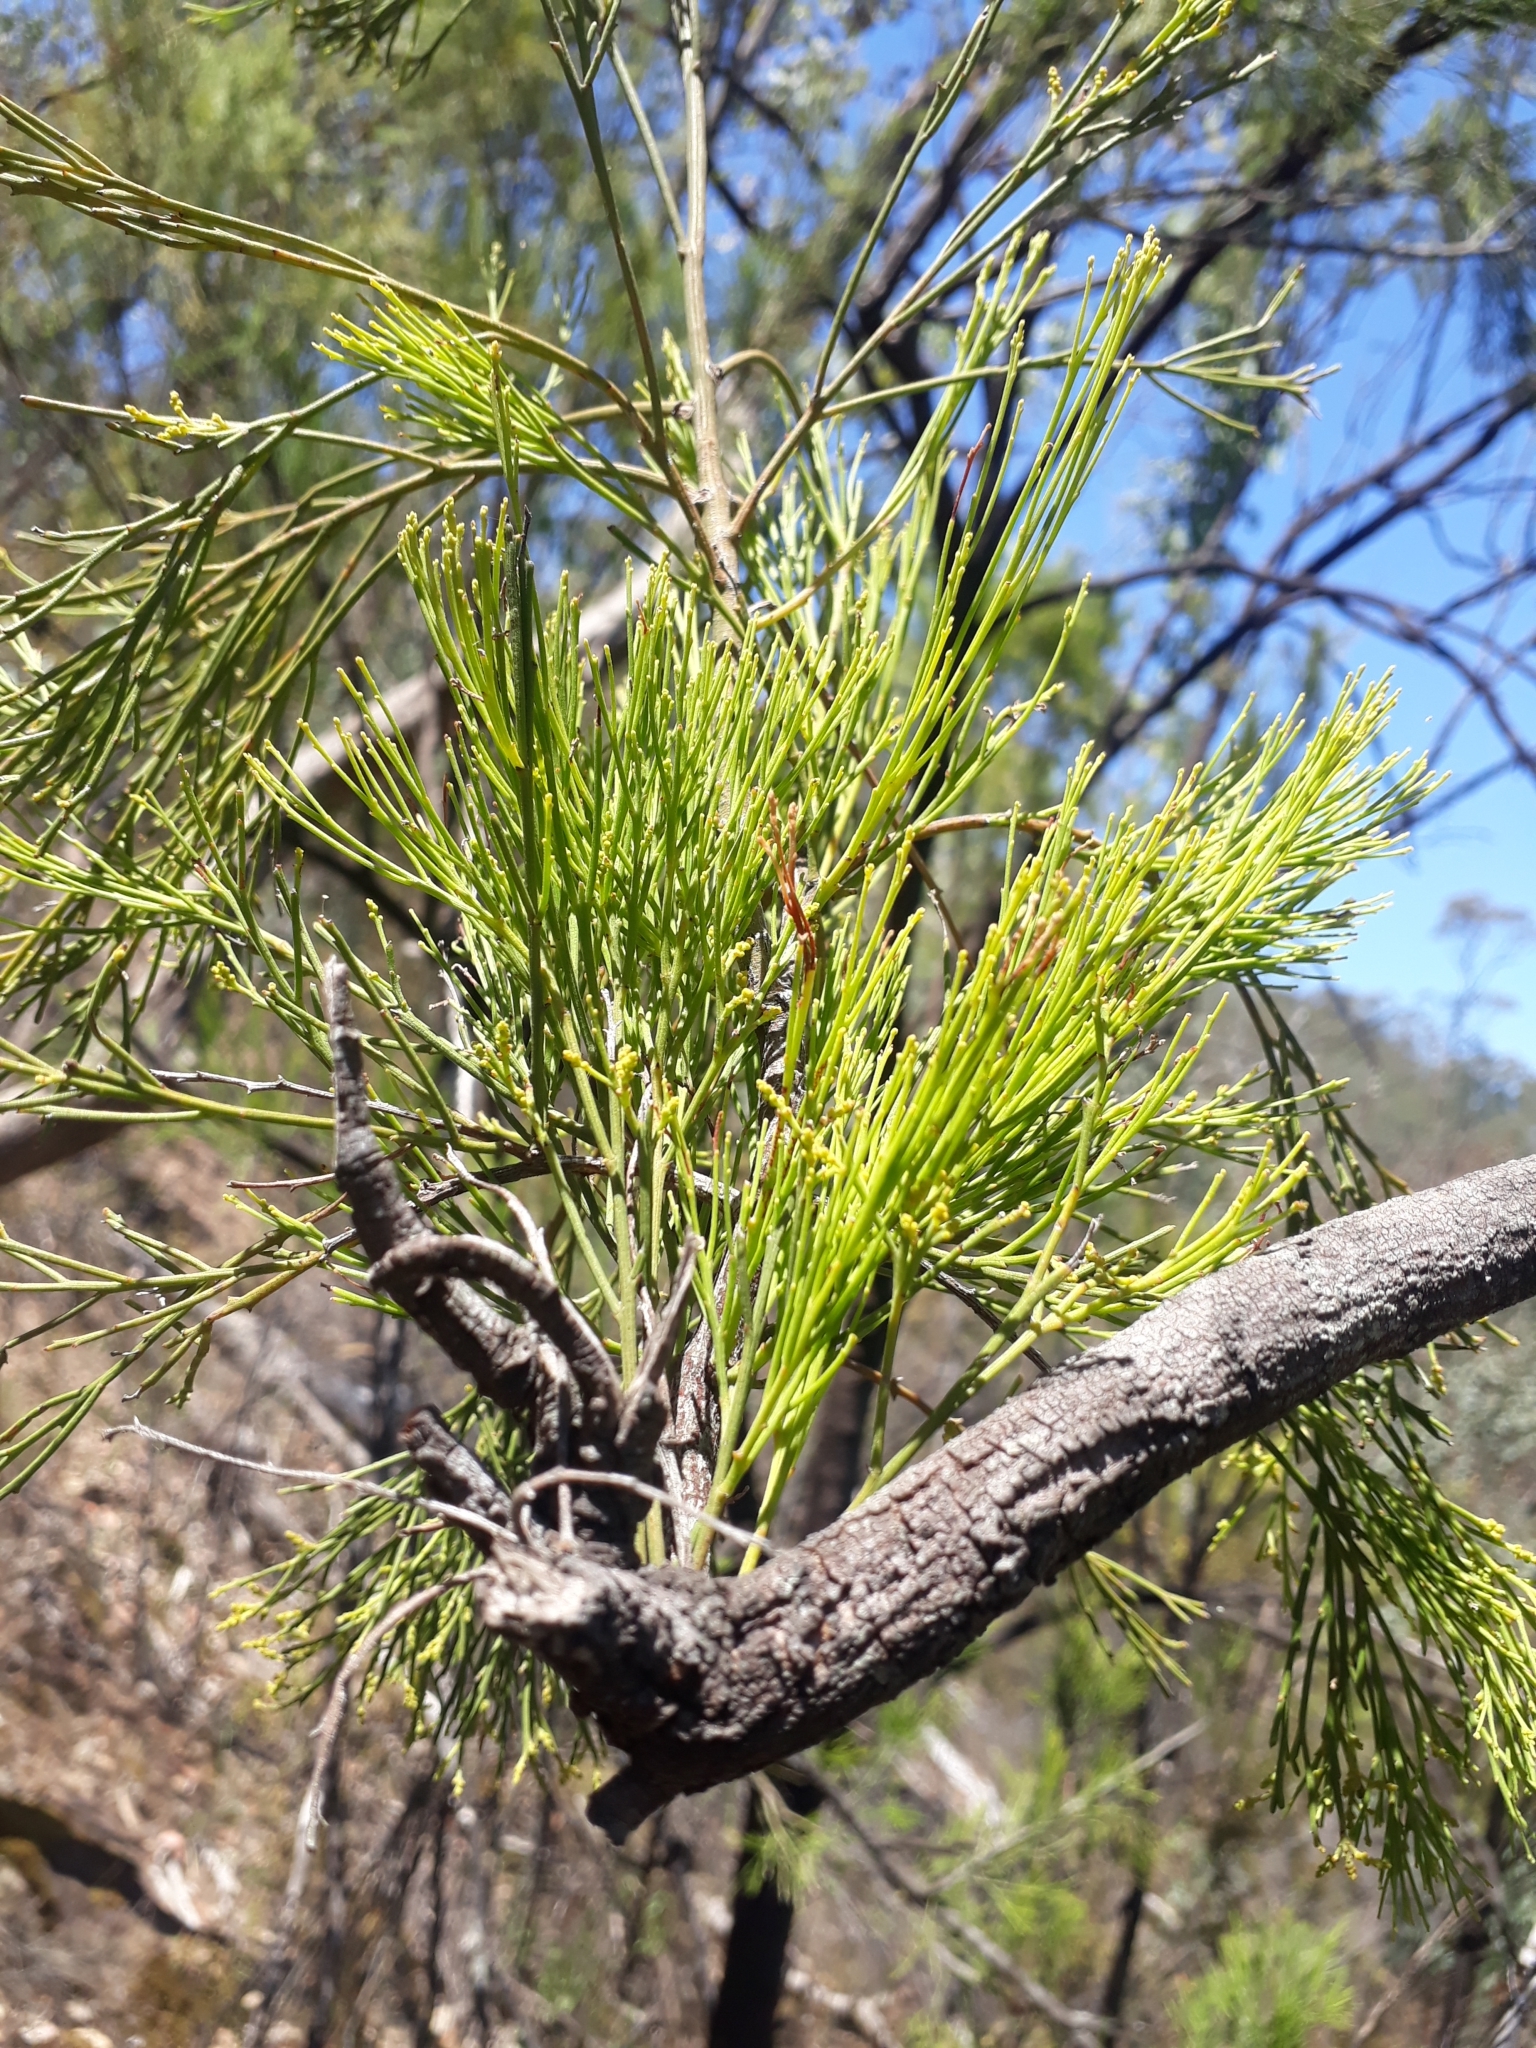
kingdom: Plantae
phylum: Tracheophyta
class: Magnoliopsida
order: Santalales
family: Santalaceae
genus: Exocarpos
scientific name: Exocarpos cupressiformis
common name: Cherry ballart
